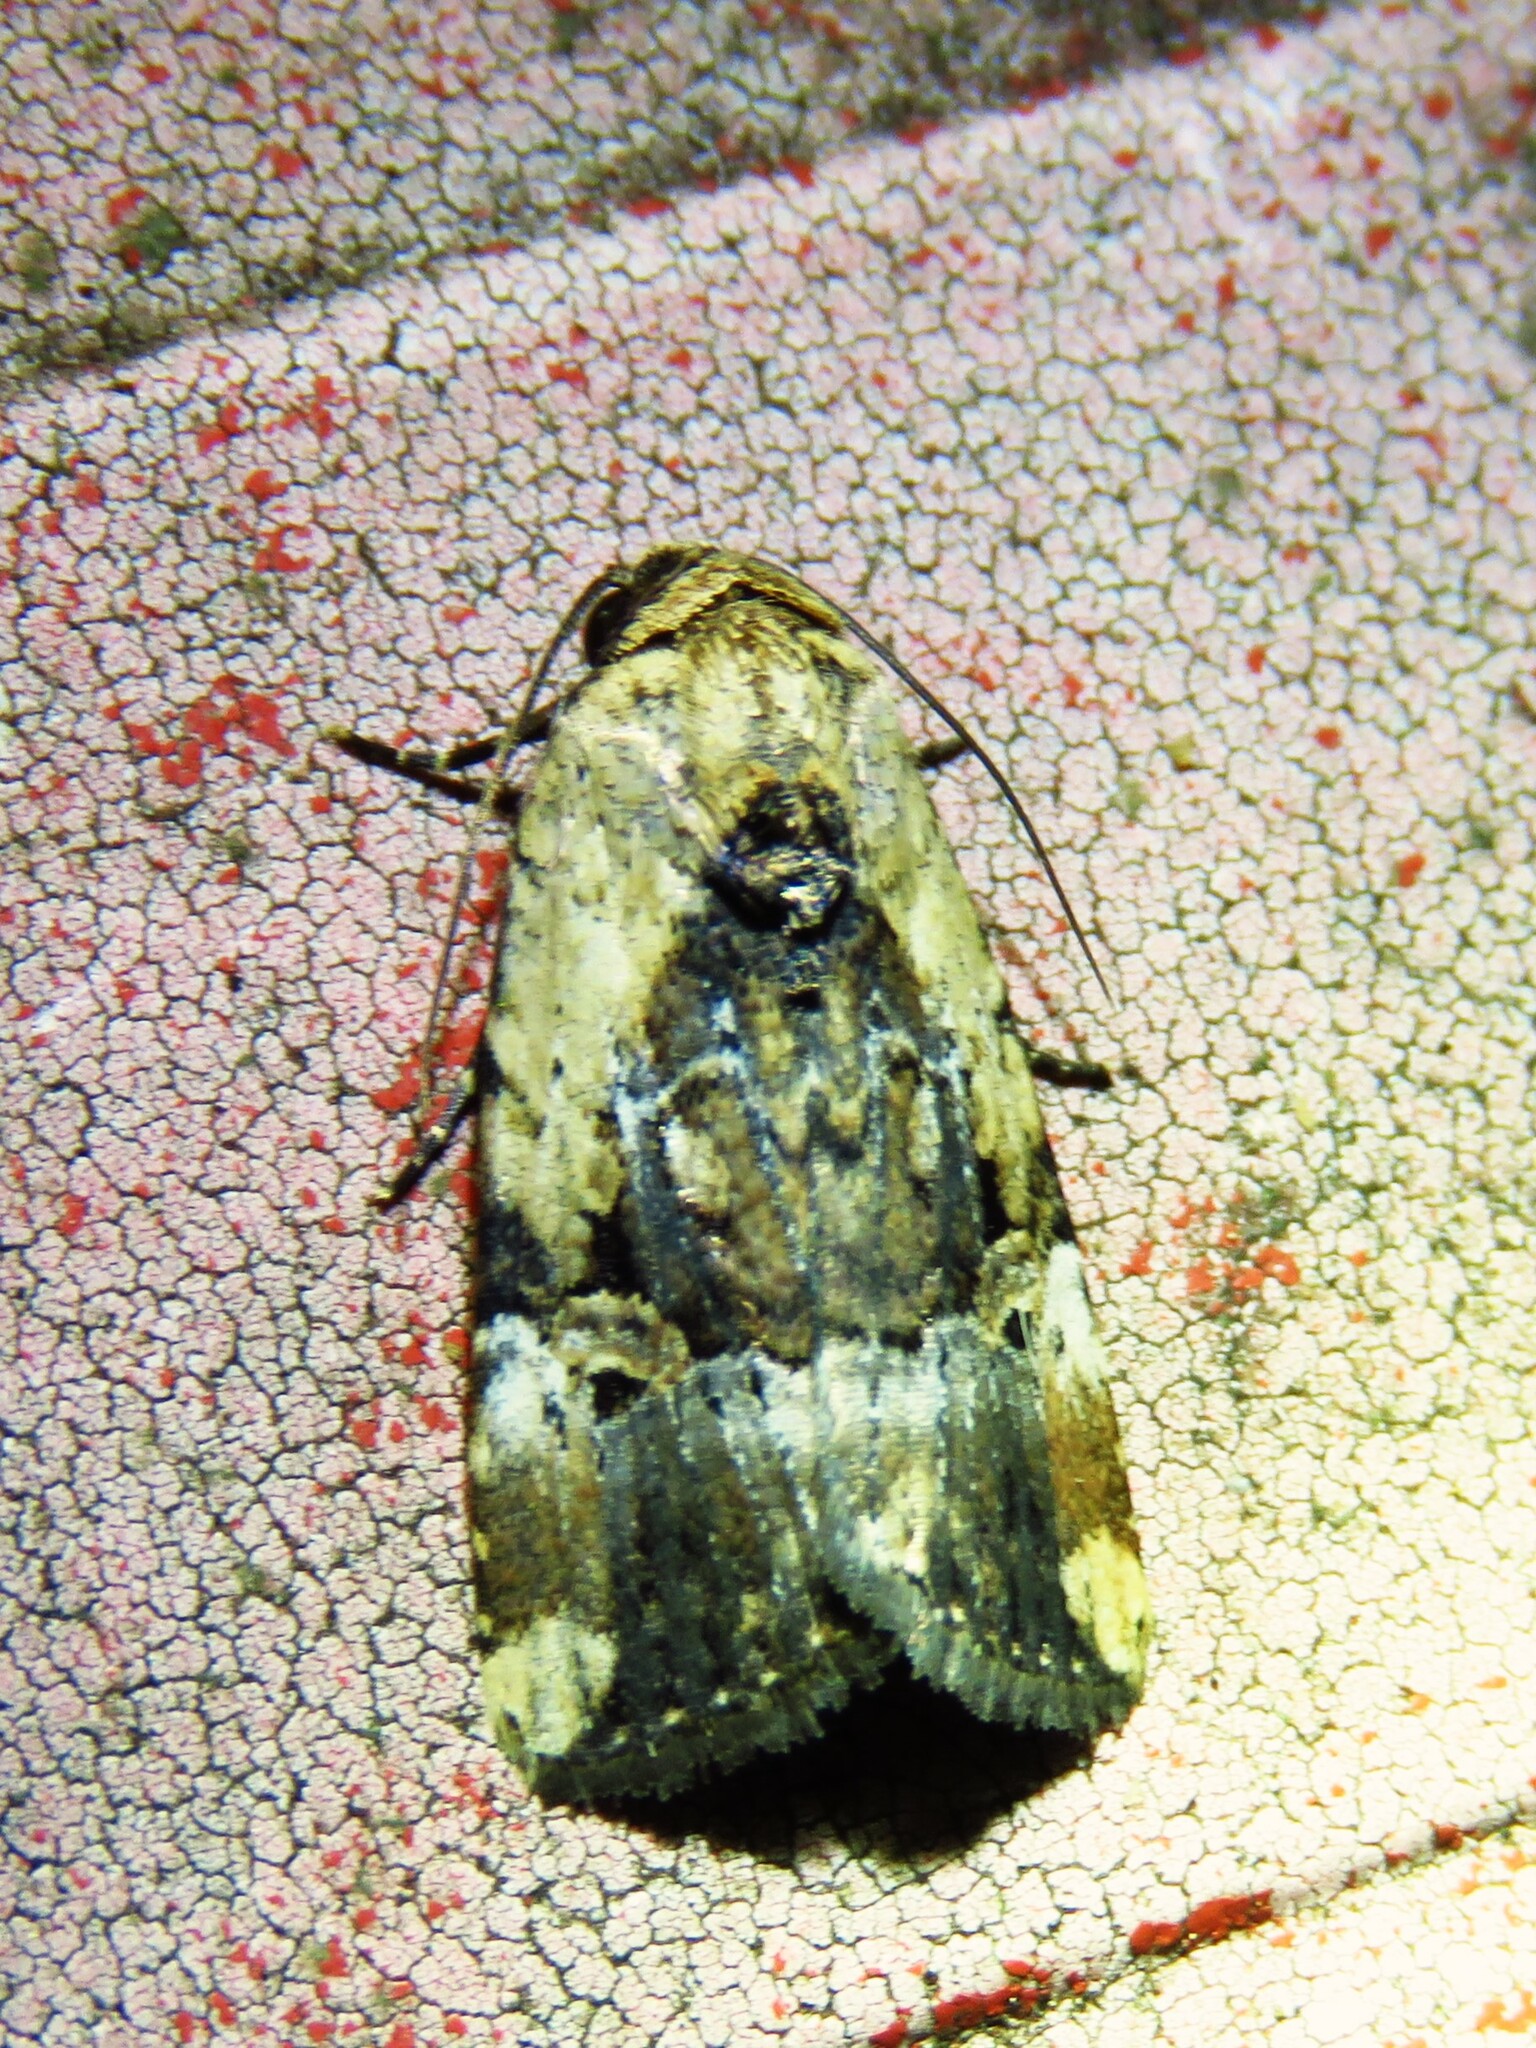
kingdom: Animalia
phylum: Arthropoda
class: Insecta
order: Lepidoptera
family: Noctuidae
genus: Elaphria
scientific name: Elaphria chalcedonia
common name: Chalcedony midget
